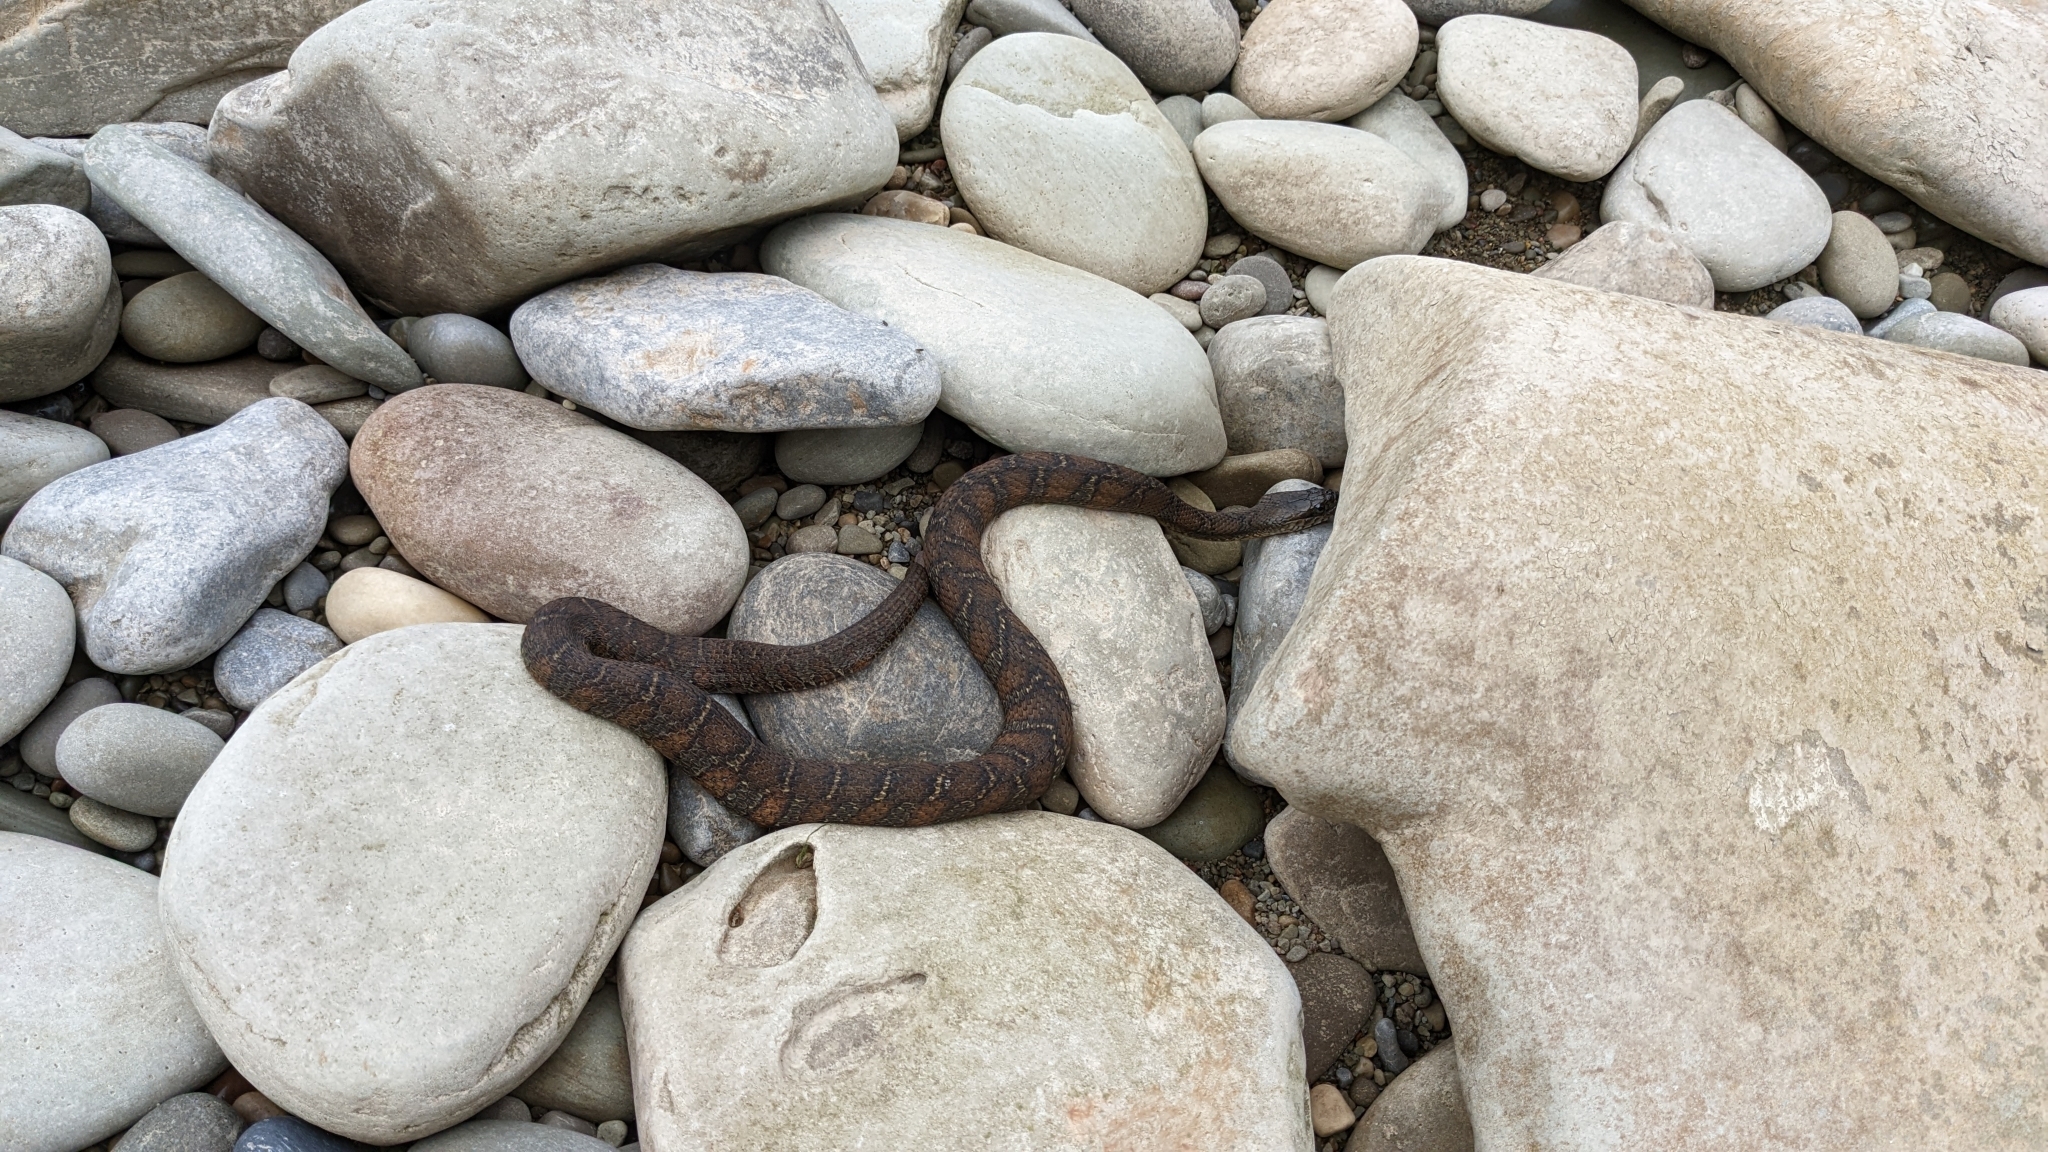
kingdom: Animalia
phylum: Chordata
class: Squamata
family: Colubridae
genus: Nerodia
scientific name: Nerodia sipedon
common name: Northern water snake
